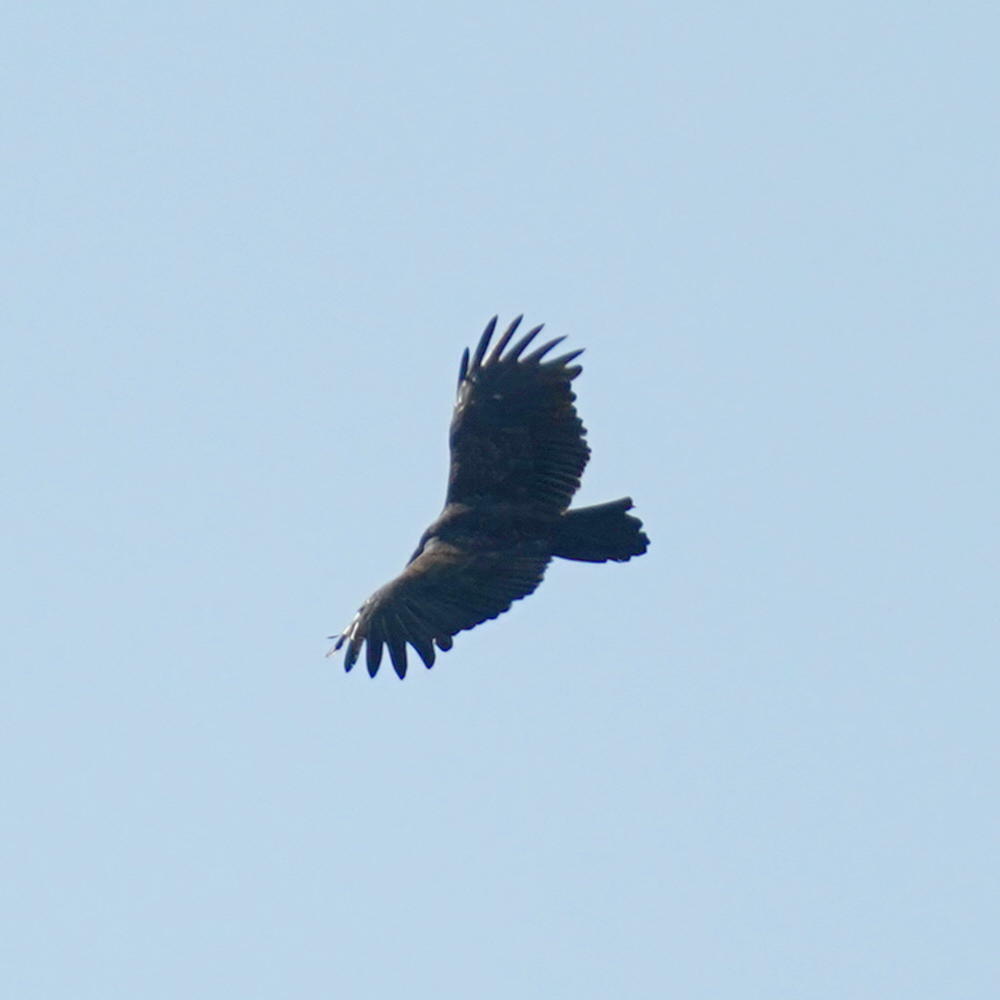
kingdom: Animalia
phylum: Chordata
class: Aves
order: Accipitriformes
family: Cathartidae
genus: Cathartes
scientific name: Cathartes aura
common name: Turkey vulture
